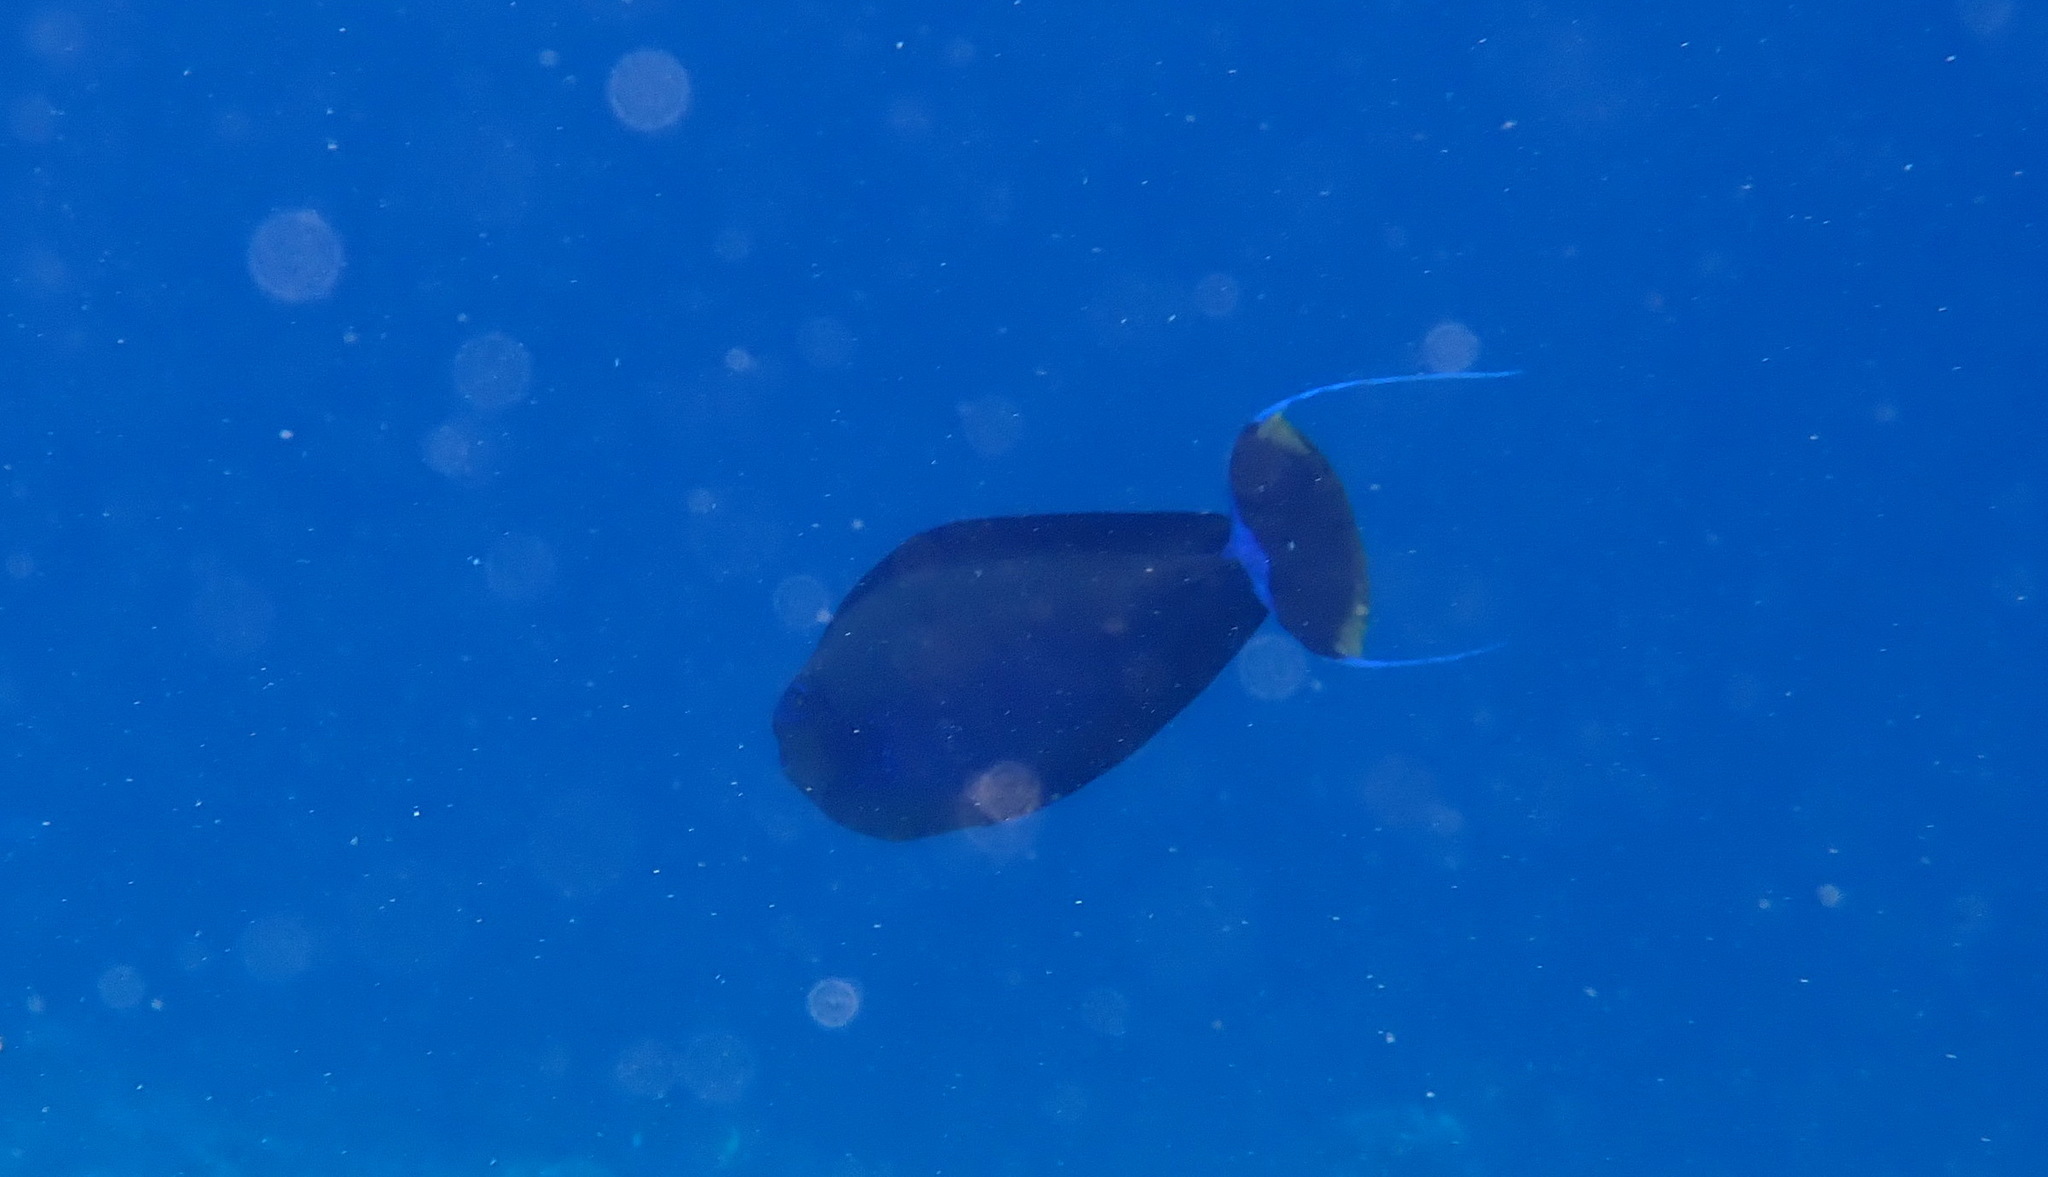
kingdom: Animalia
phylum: Chordata
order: Perciformes
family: Acanthuridae
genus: Naso
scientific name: Naso vlamingii
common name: Big-nose unicorn
